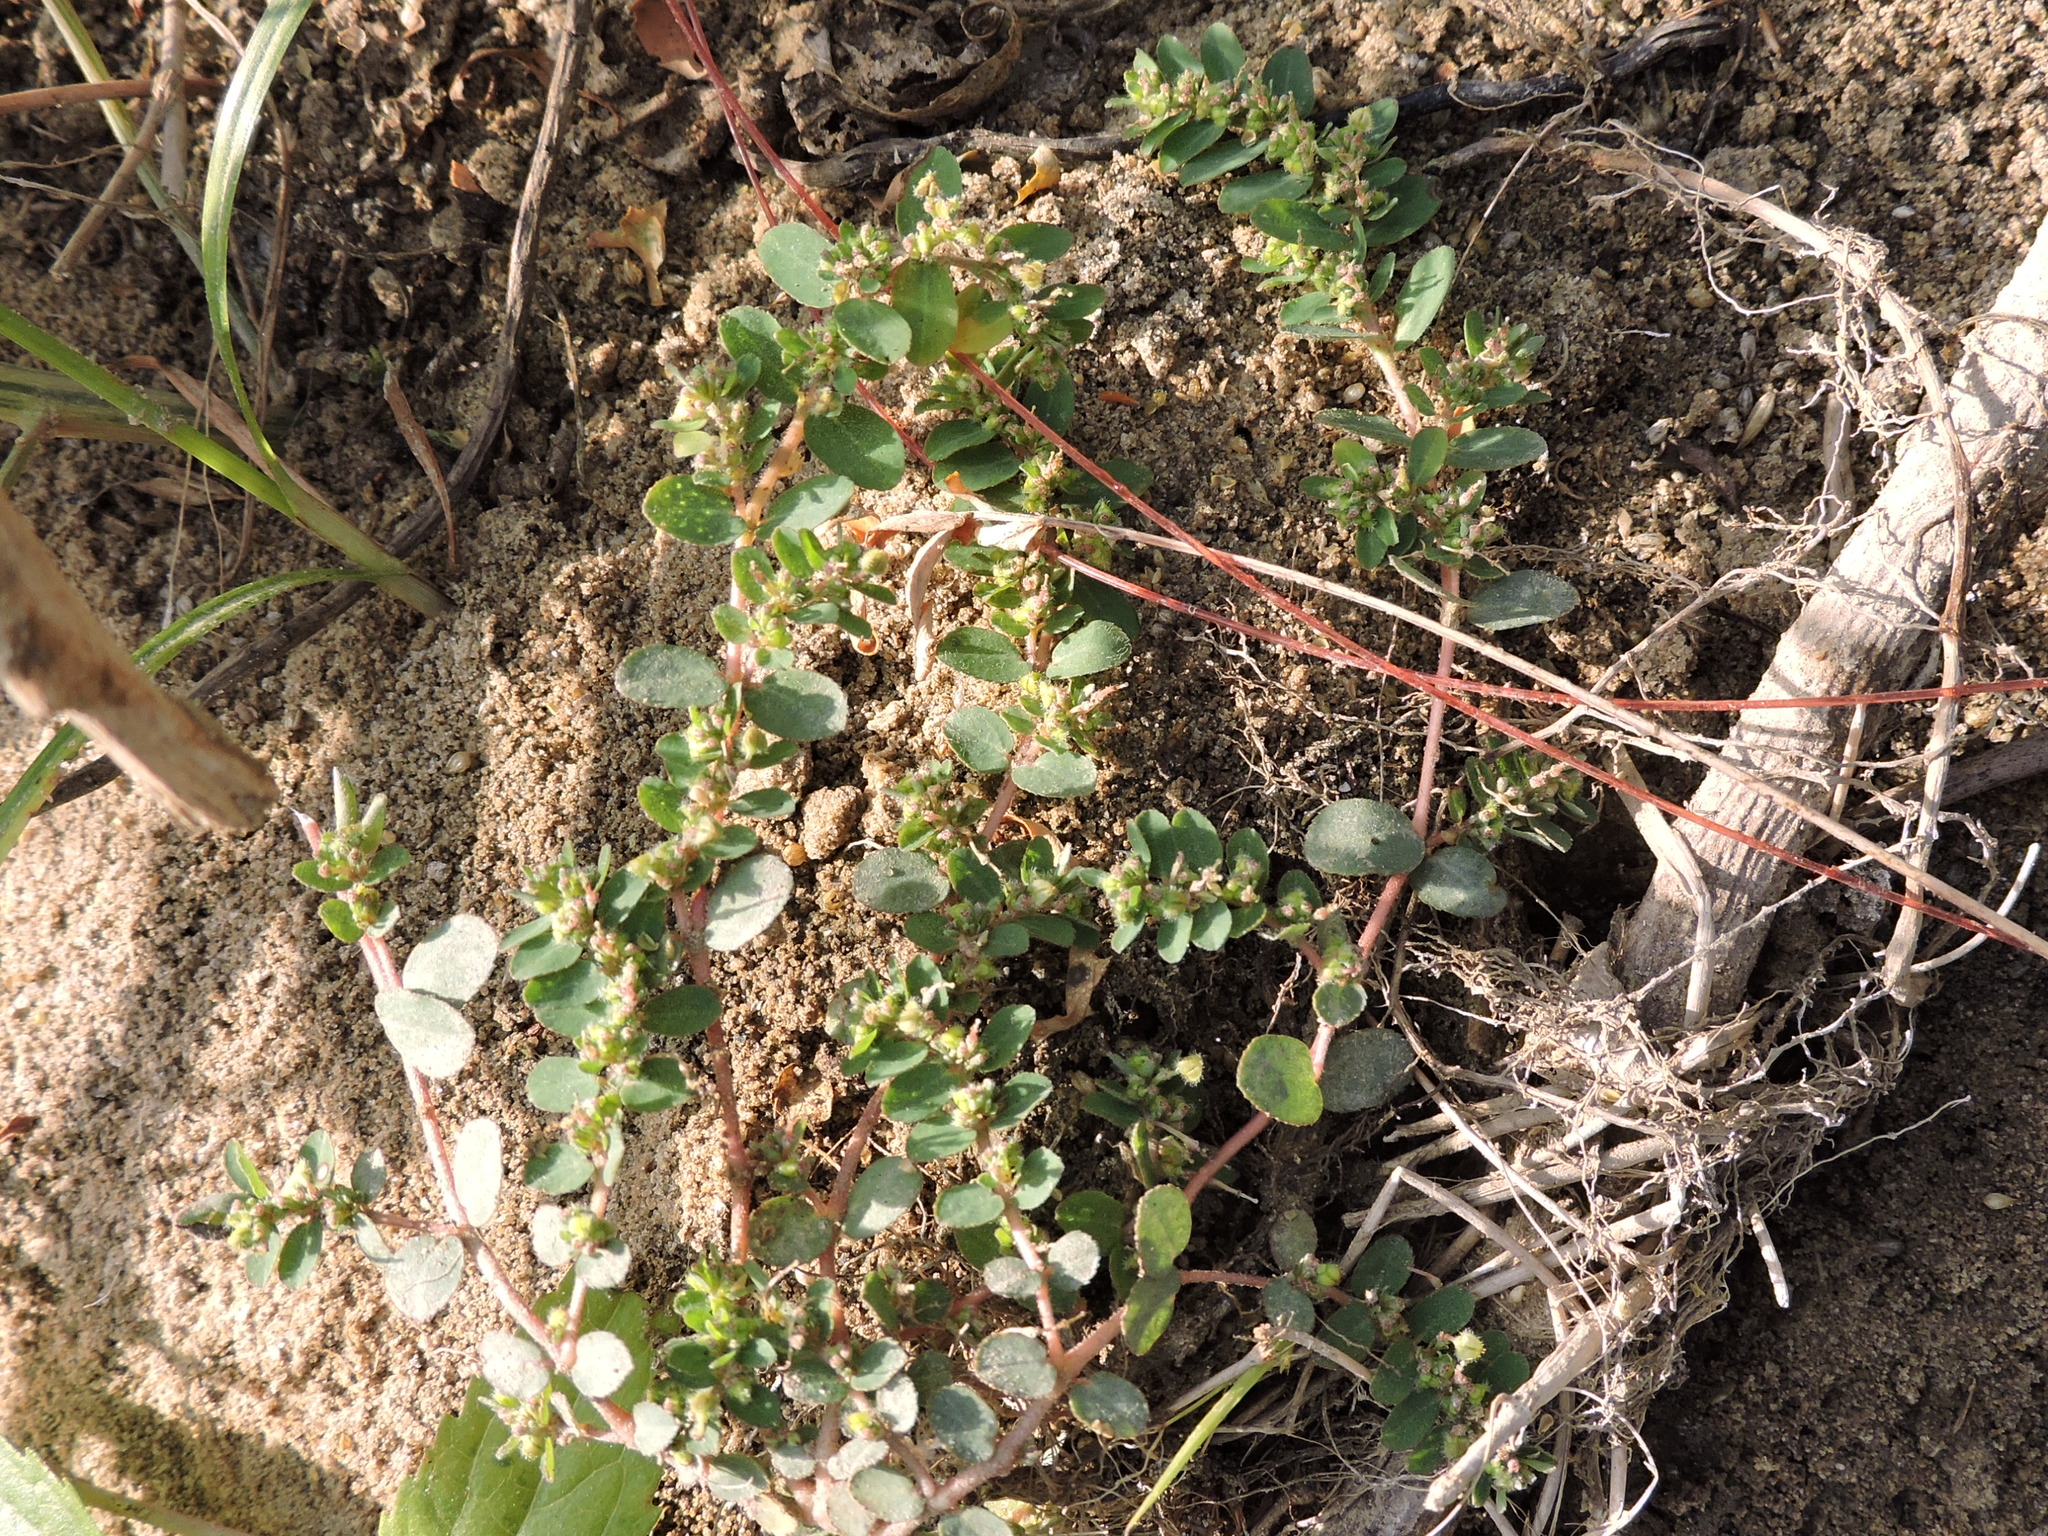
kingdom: Plantae
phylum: Tracheophyta
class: Magnoliopsida
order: Malpighiales
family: Euphorbiaceae
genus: Euphorbia
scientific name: Euphorbia prostrata
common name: Prostrate sandmat
